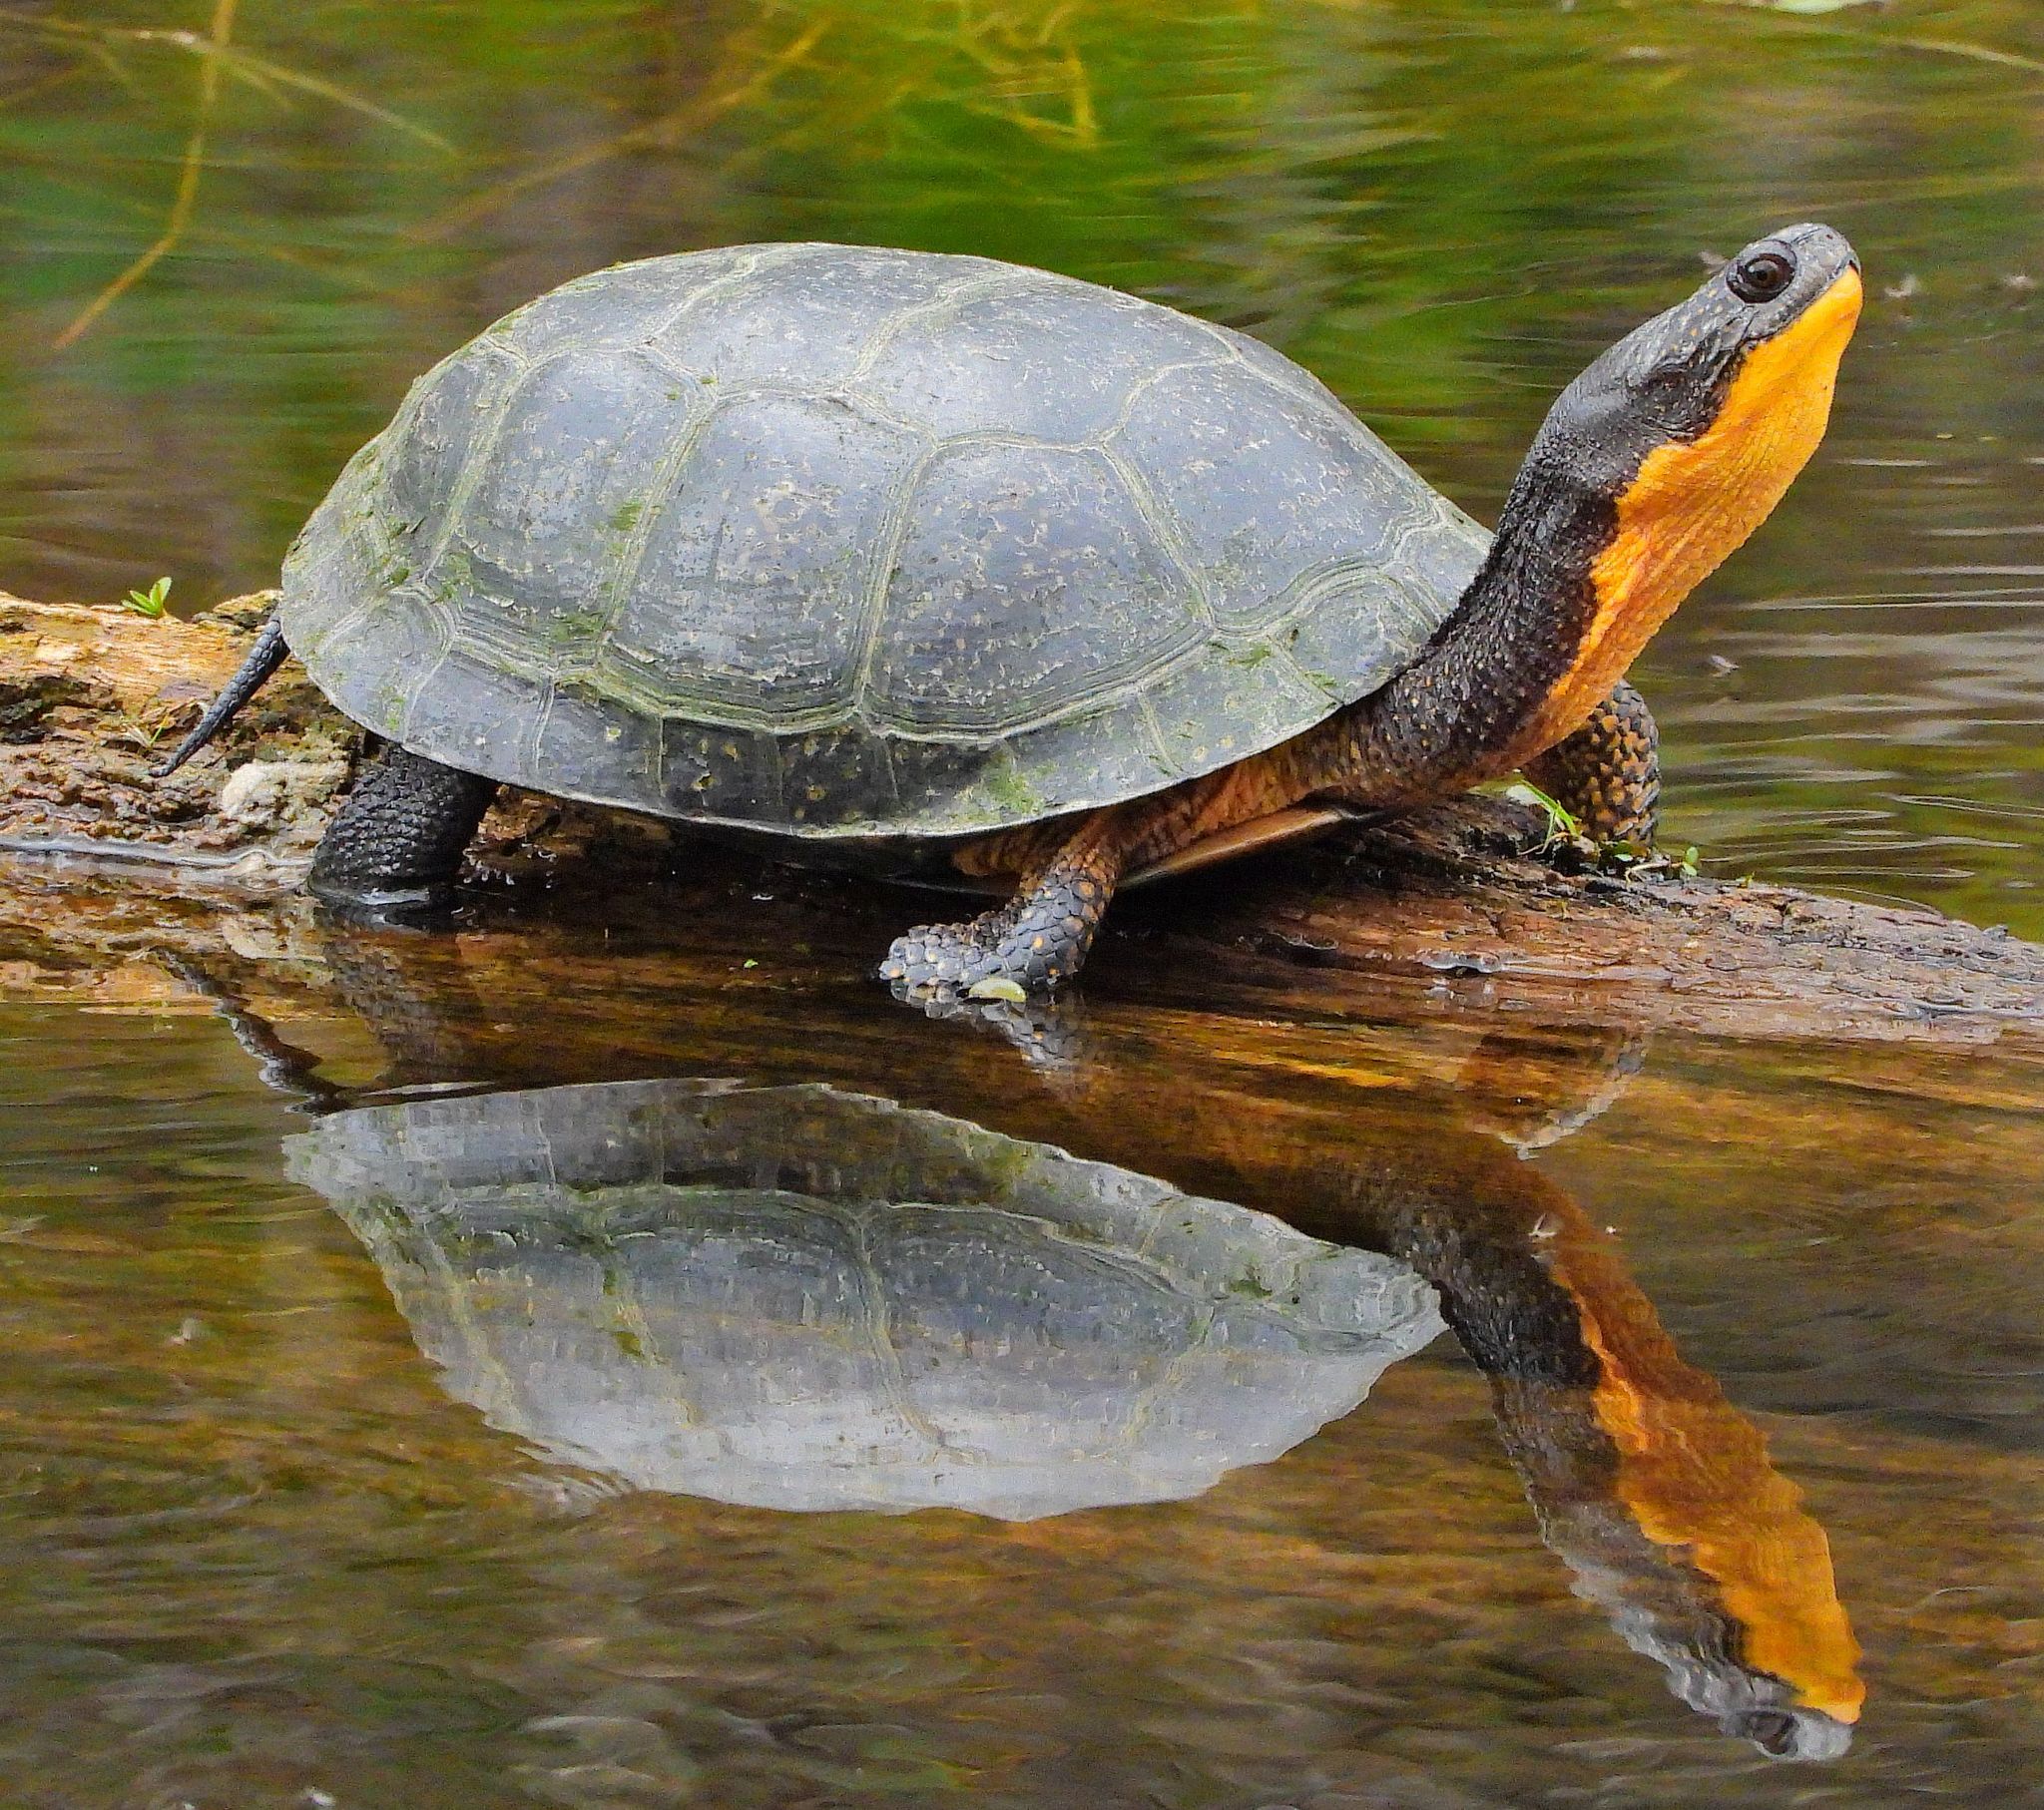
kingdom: Animalia
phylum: Chordata
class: Testudines
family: Emydidae
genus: Emys
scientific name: Emys blandingii
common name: Blanding's turtle
